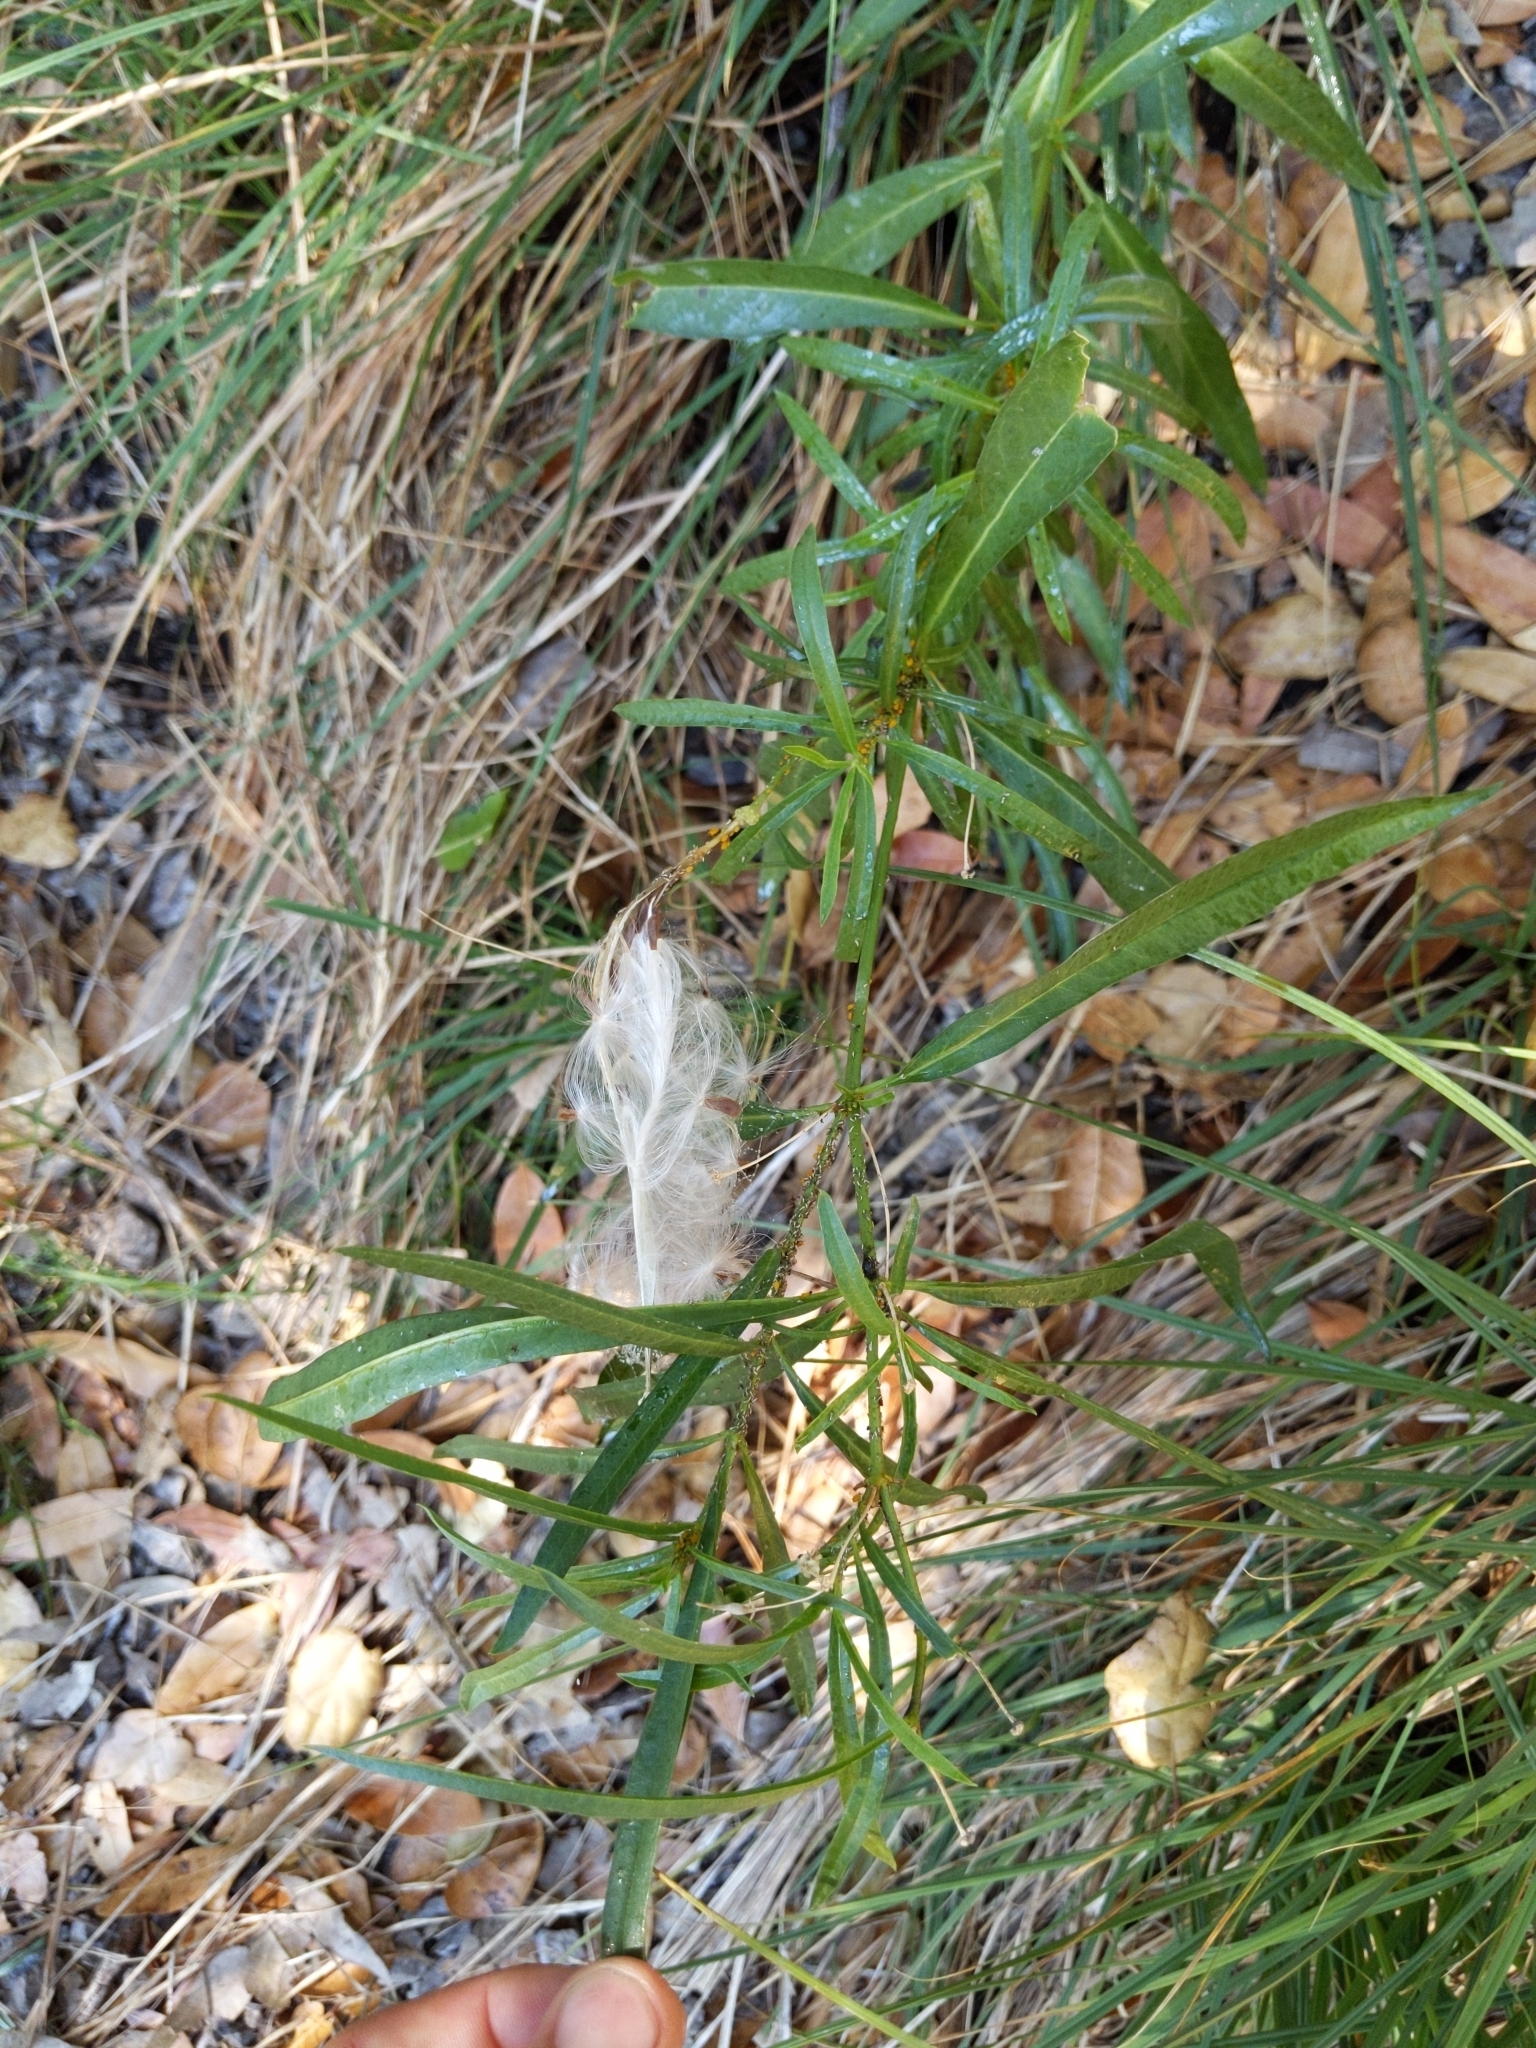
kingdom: Plantae
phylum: Tracheophyta
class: Magnoliopsida
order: Gentianales
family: Apocynaceae
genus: Asclepias
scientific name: Asclepias fascicularis
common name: Mexican milkweed
